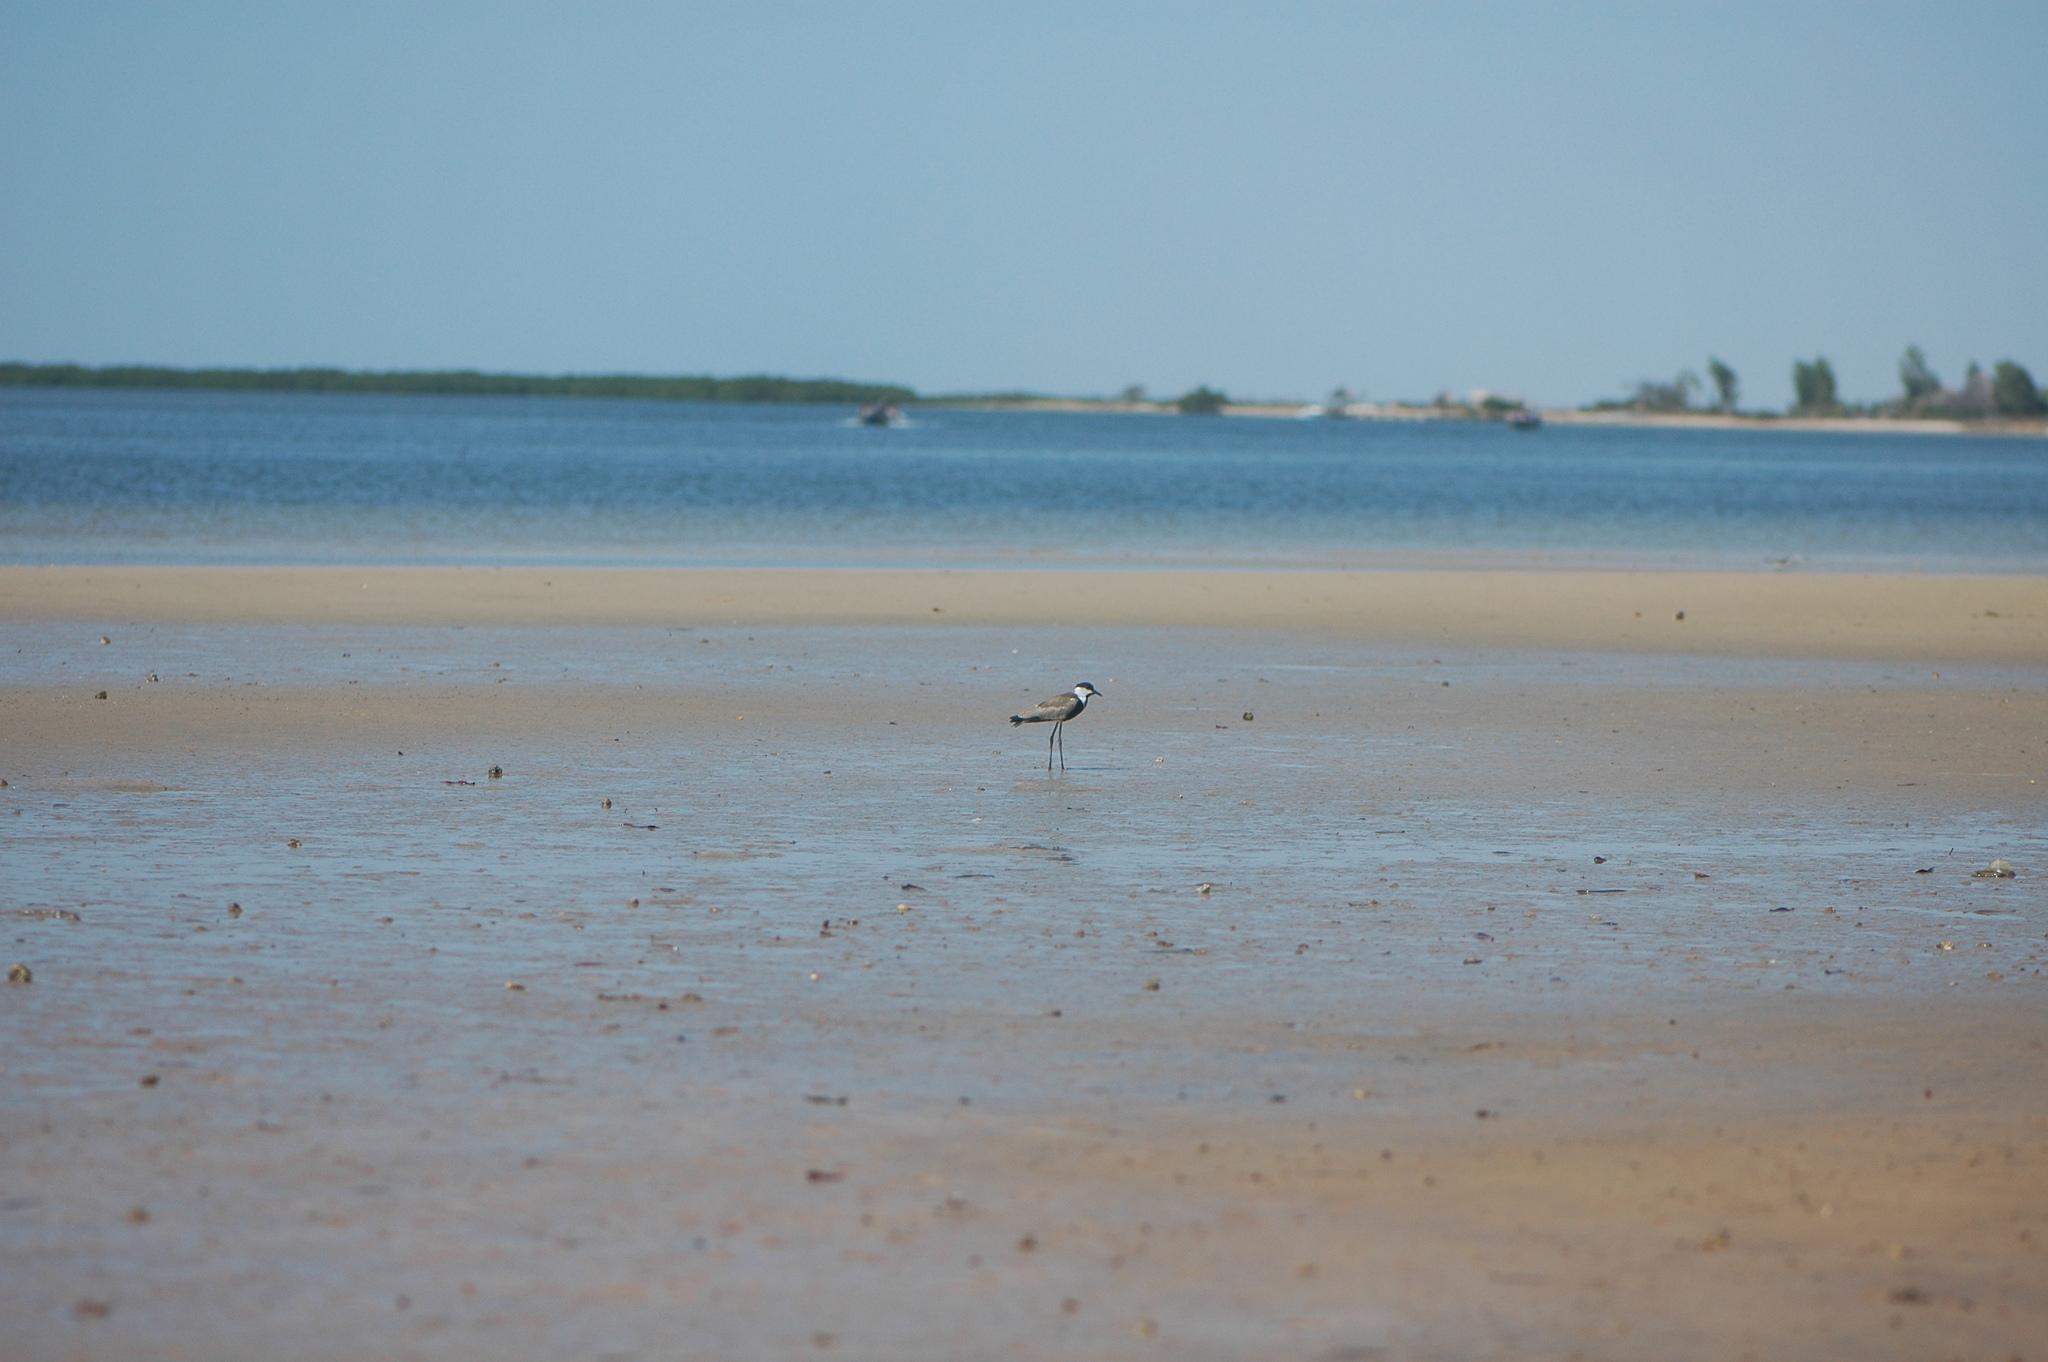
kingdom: Animalia
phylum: Chordata
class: Aves
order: Charadriiformes
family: Charadriidae
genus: Vanellus
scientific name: Vanellus spinosus
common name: Spur-winged lapwing
